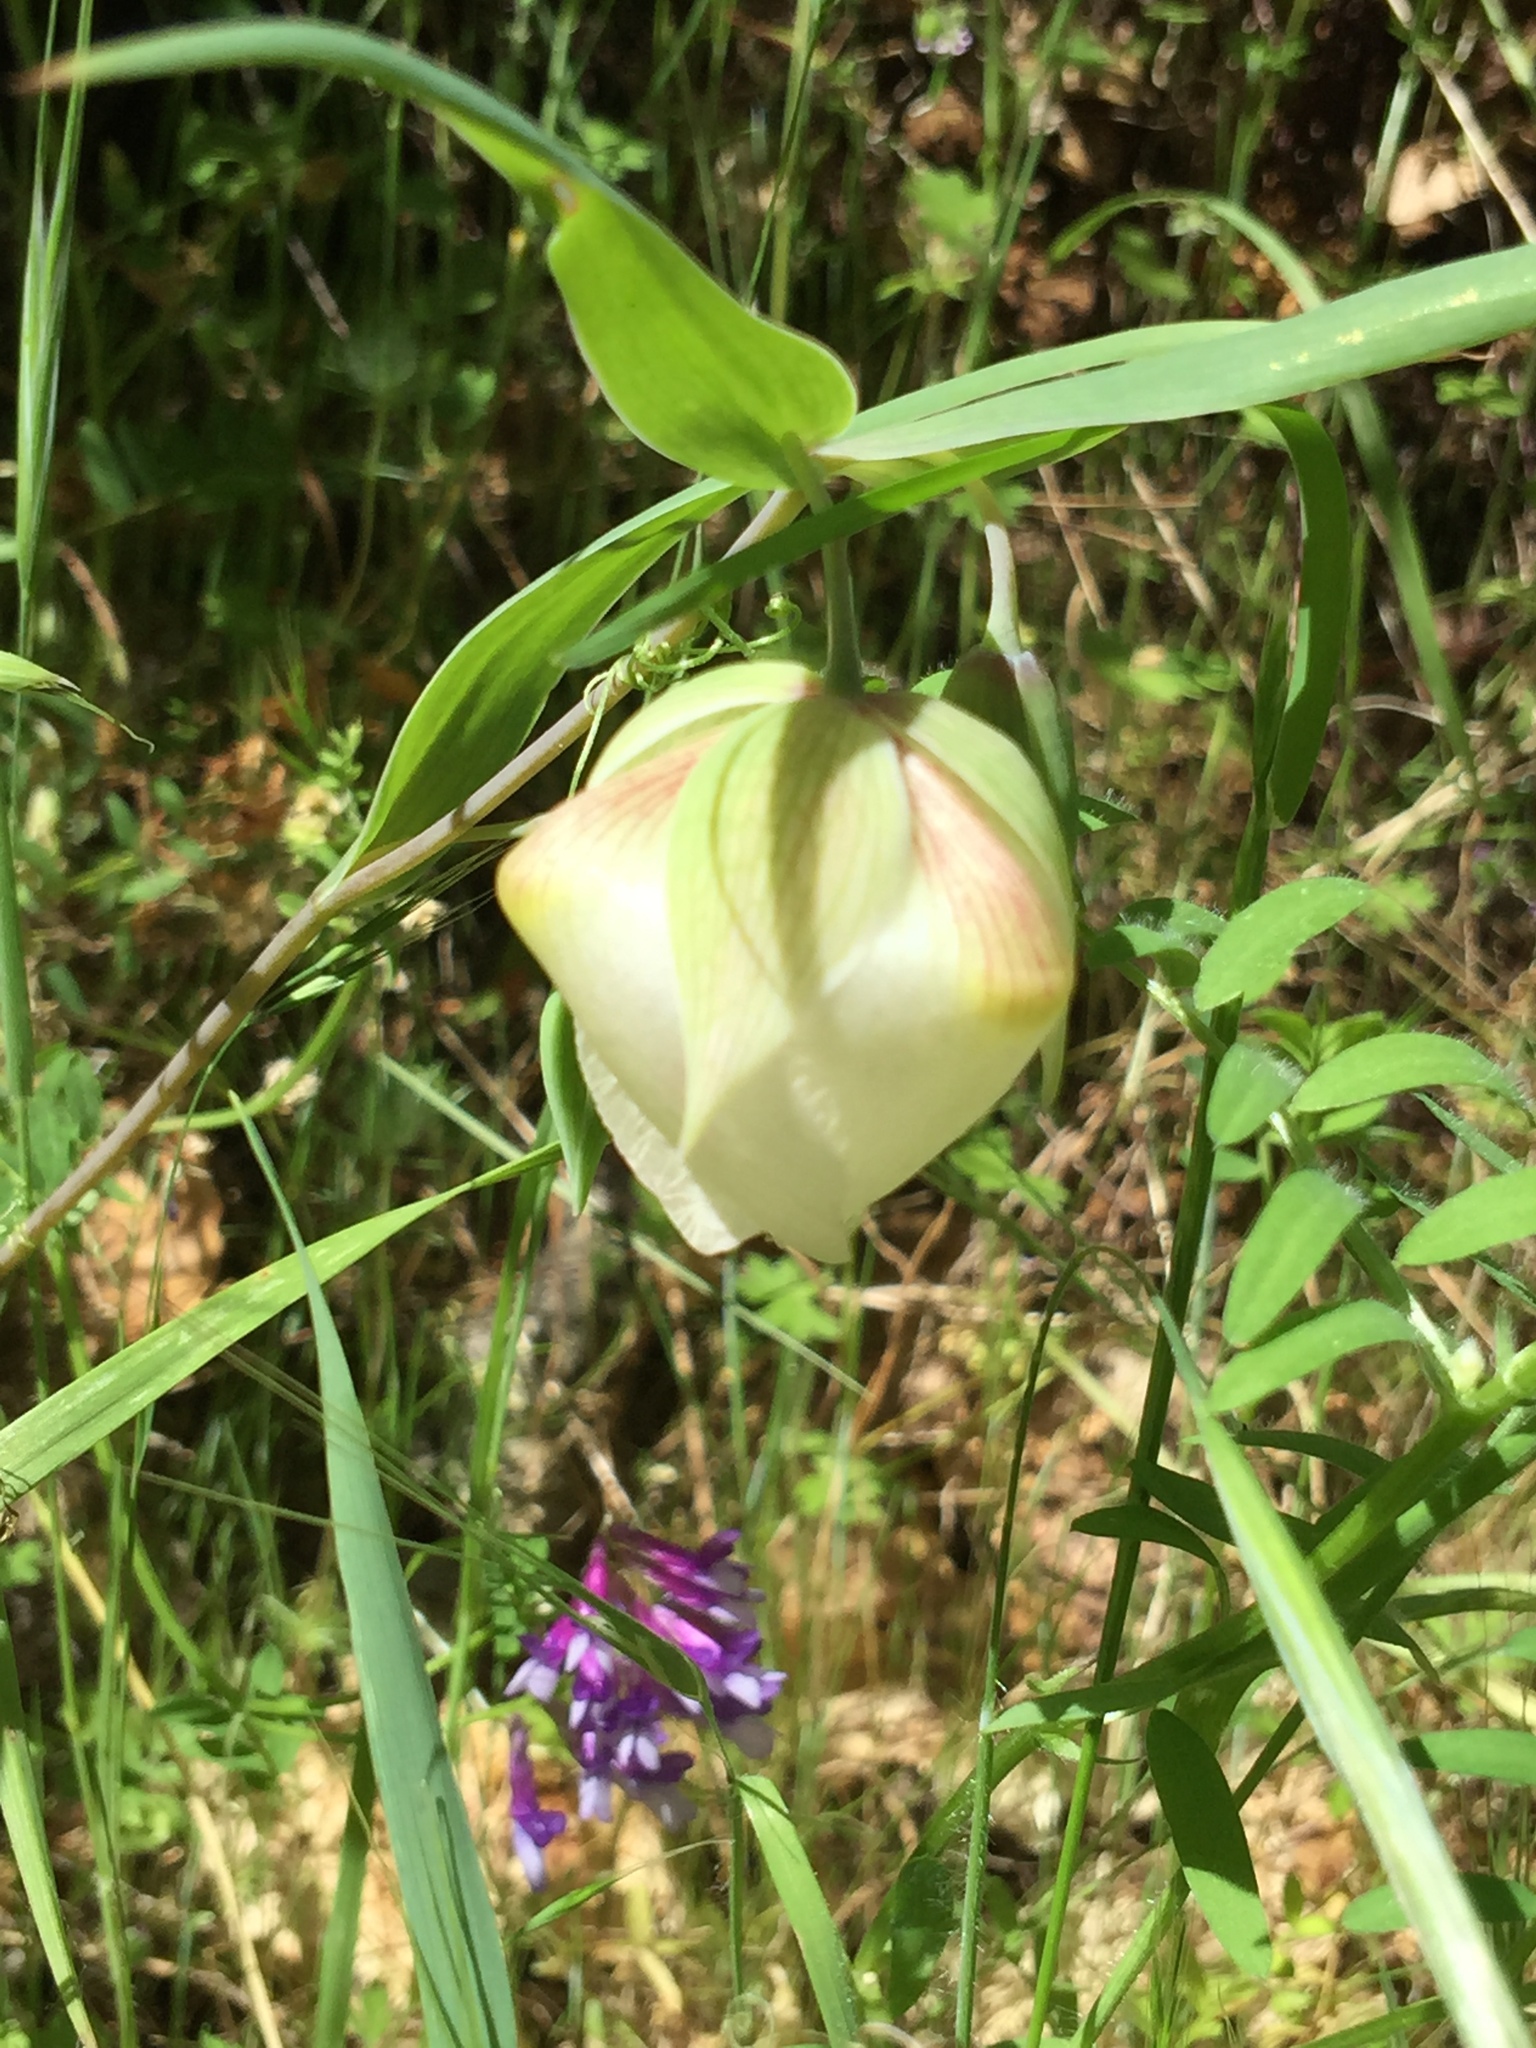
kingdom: Plantae
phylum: Tracheophyta
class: Liliopsida
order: Liliales
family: Liliaceae
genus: Calochortus
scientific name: Calochortus albus
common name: Fairy-lantern
